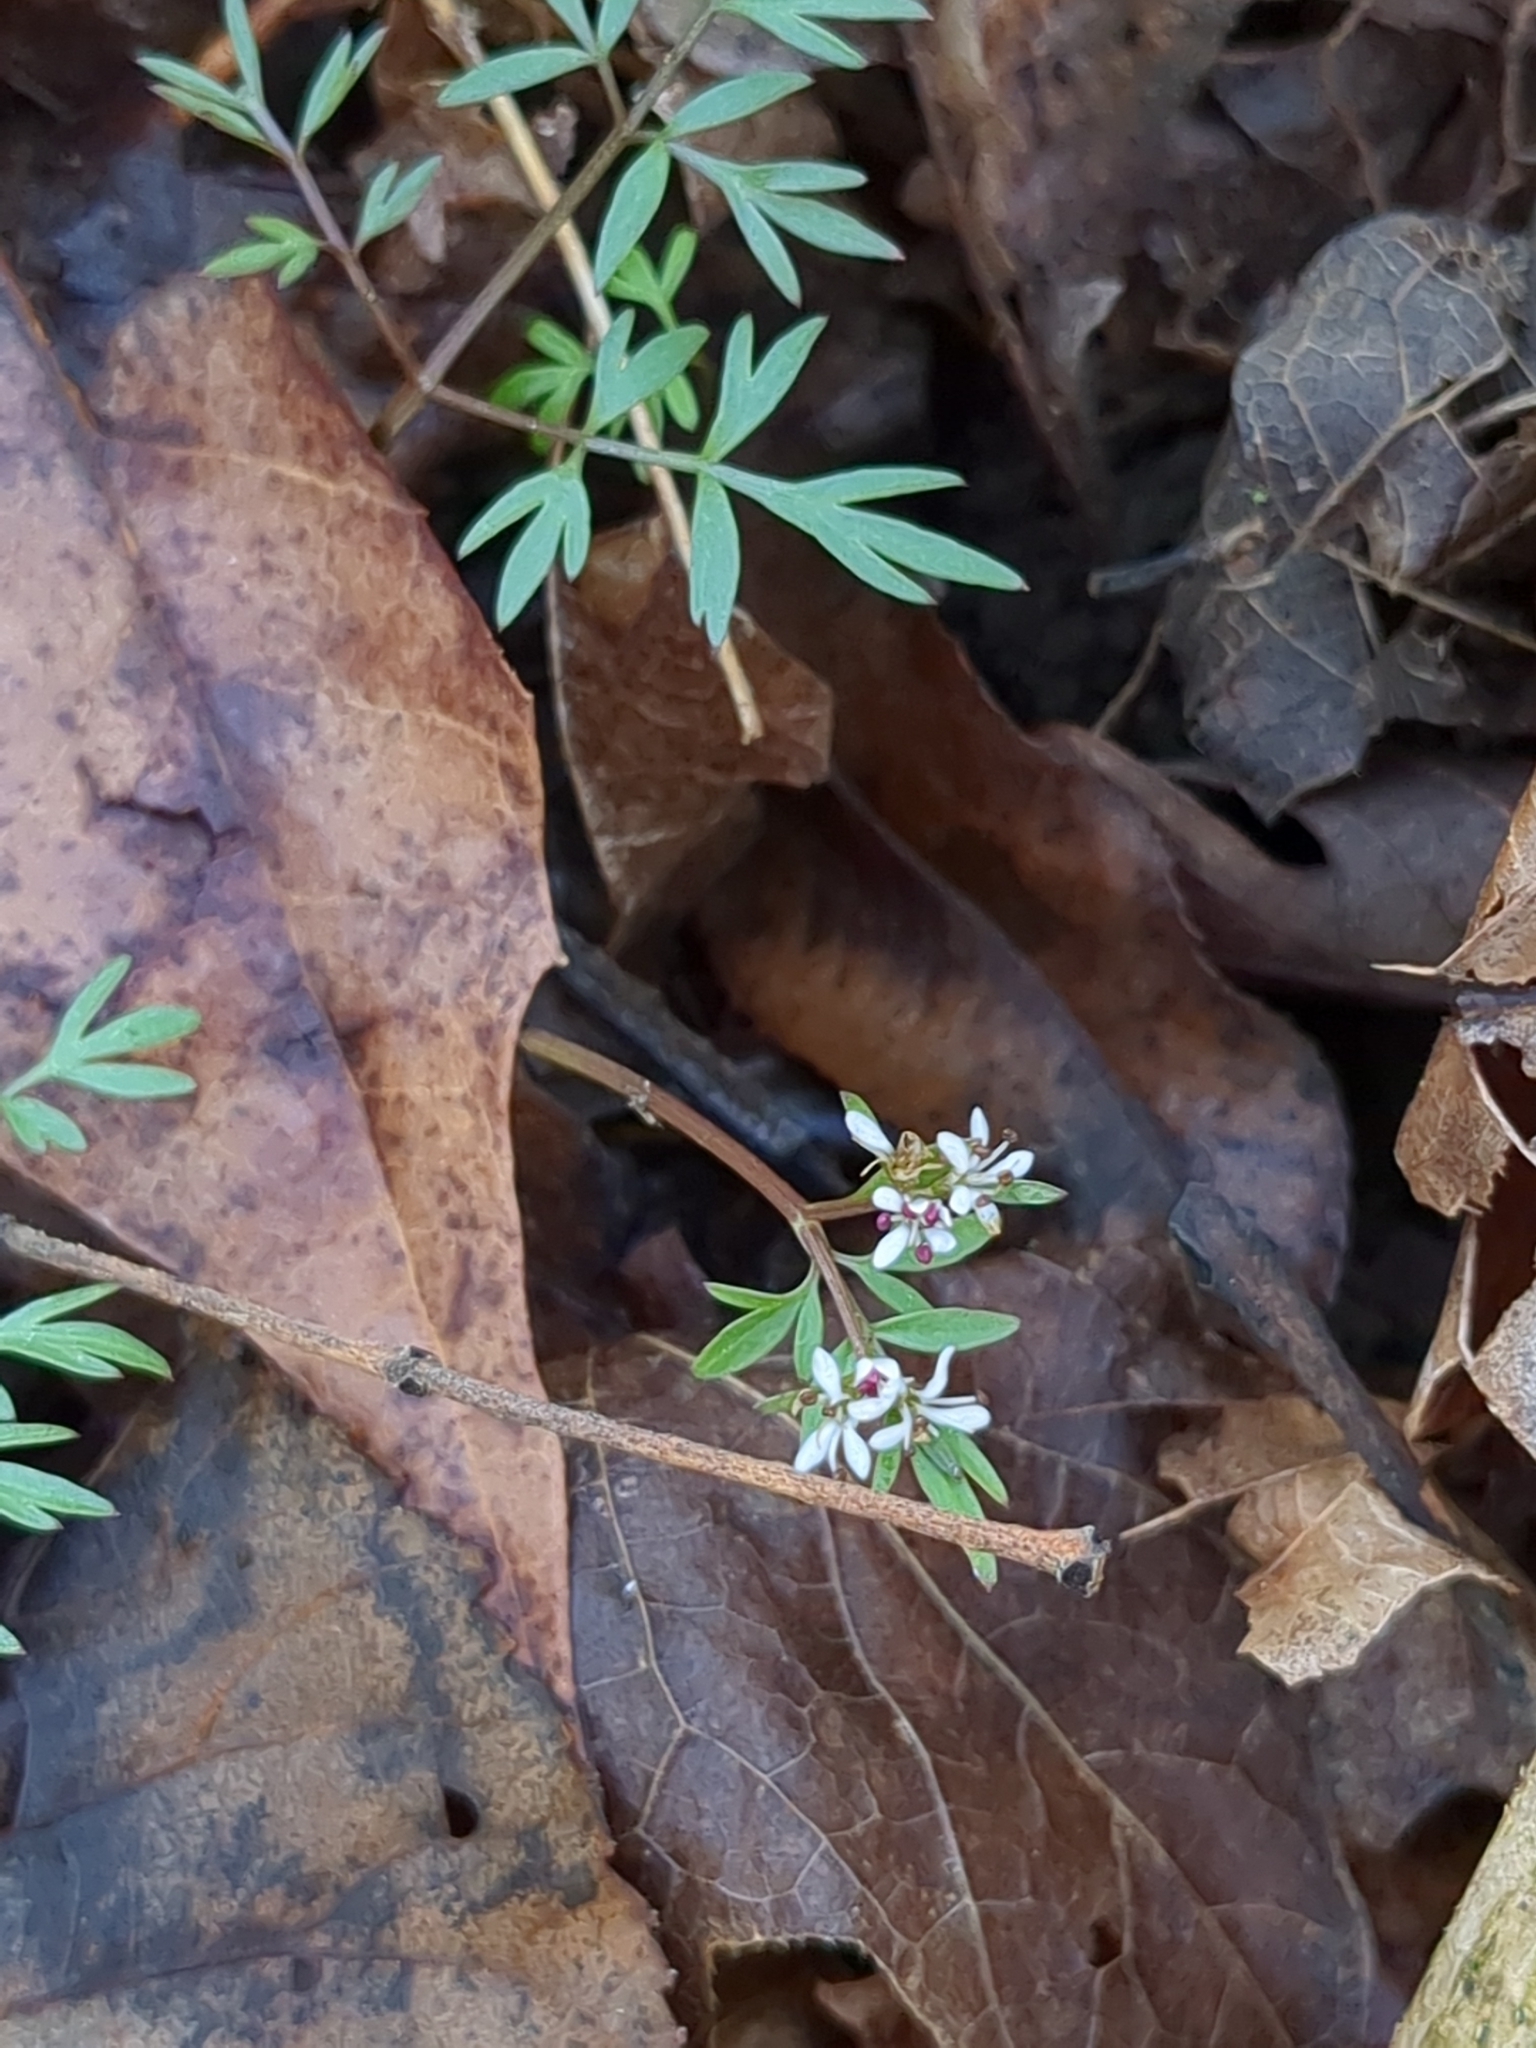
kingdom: Plantae
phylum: Tracheophyta
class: Magnoliopsida
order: Apiales
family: Apiaceae
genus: Erigenia
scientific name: Erigenia bulbosa
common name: Pepper-and-salt
